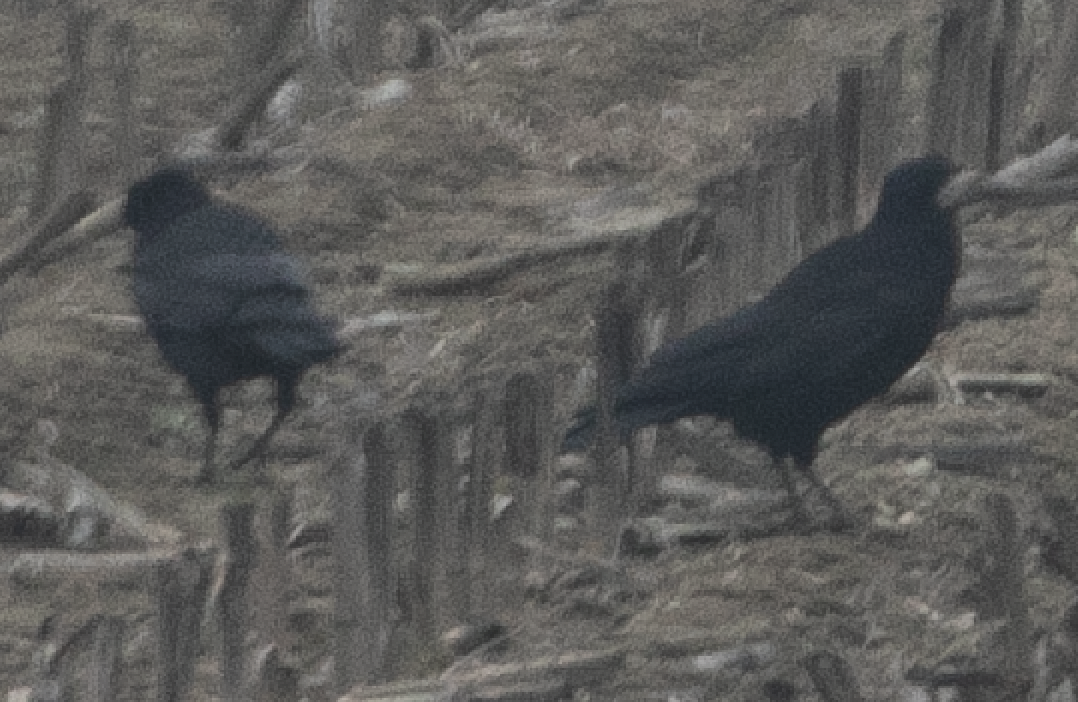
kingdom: Animalia
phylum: Chordata
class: Aves
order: Passeriformes
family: Corvidae
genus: Corvus
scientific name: Corvus frugilegus
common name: Rook
